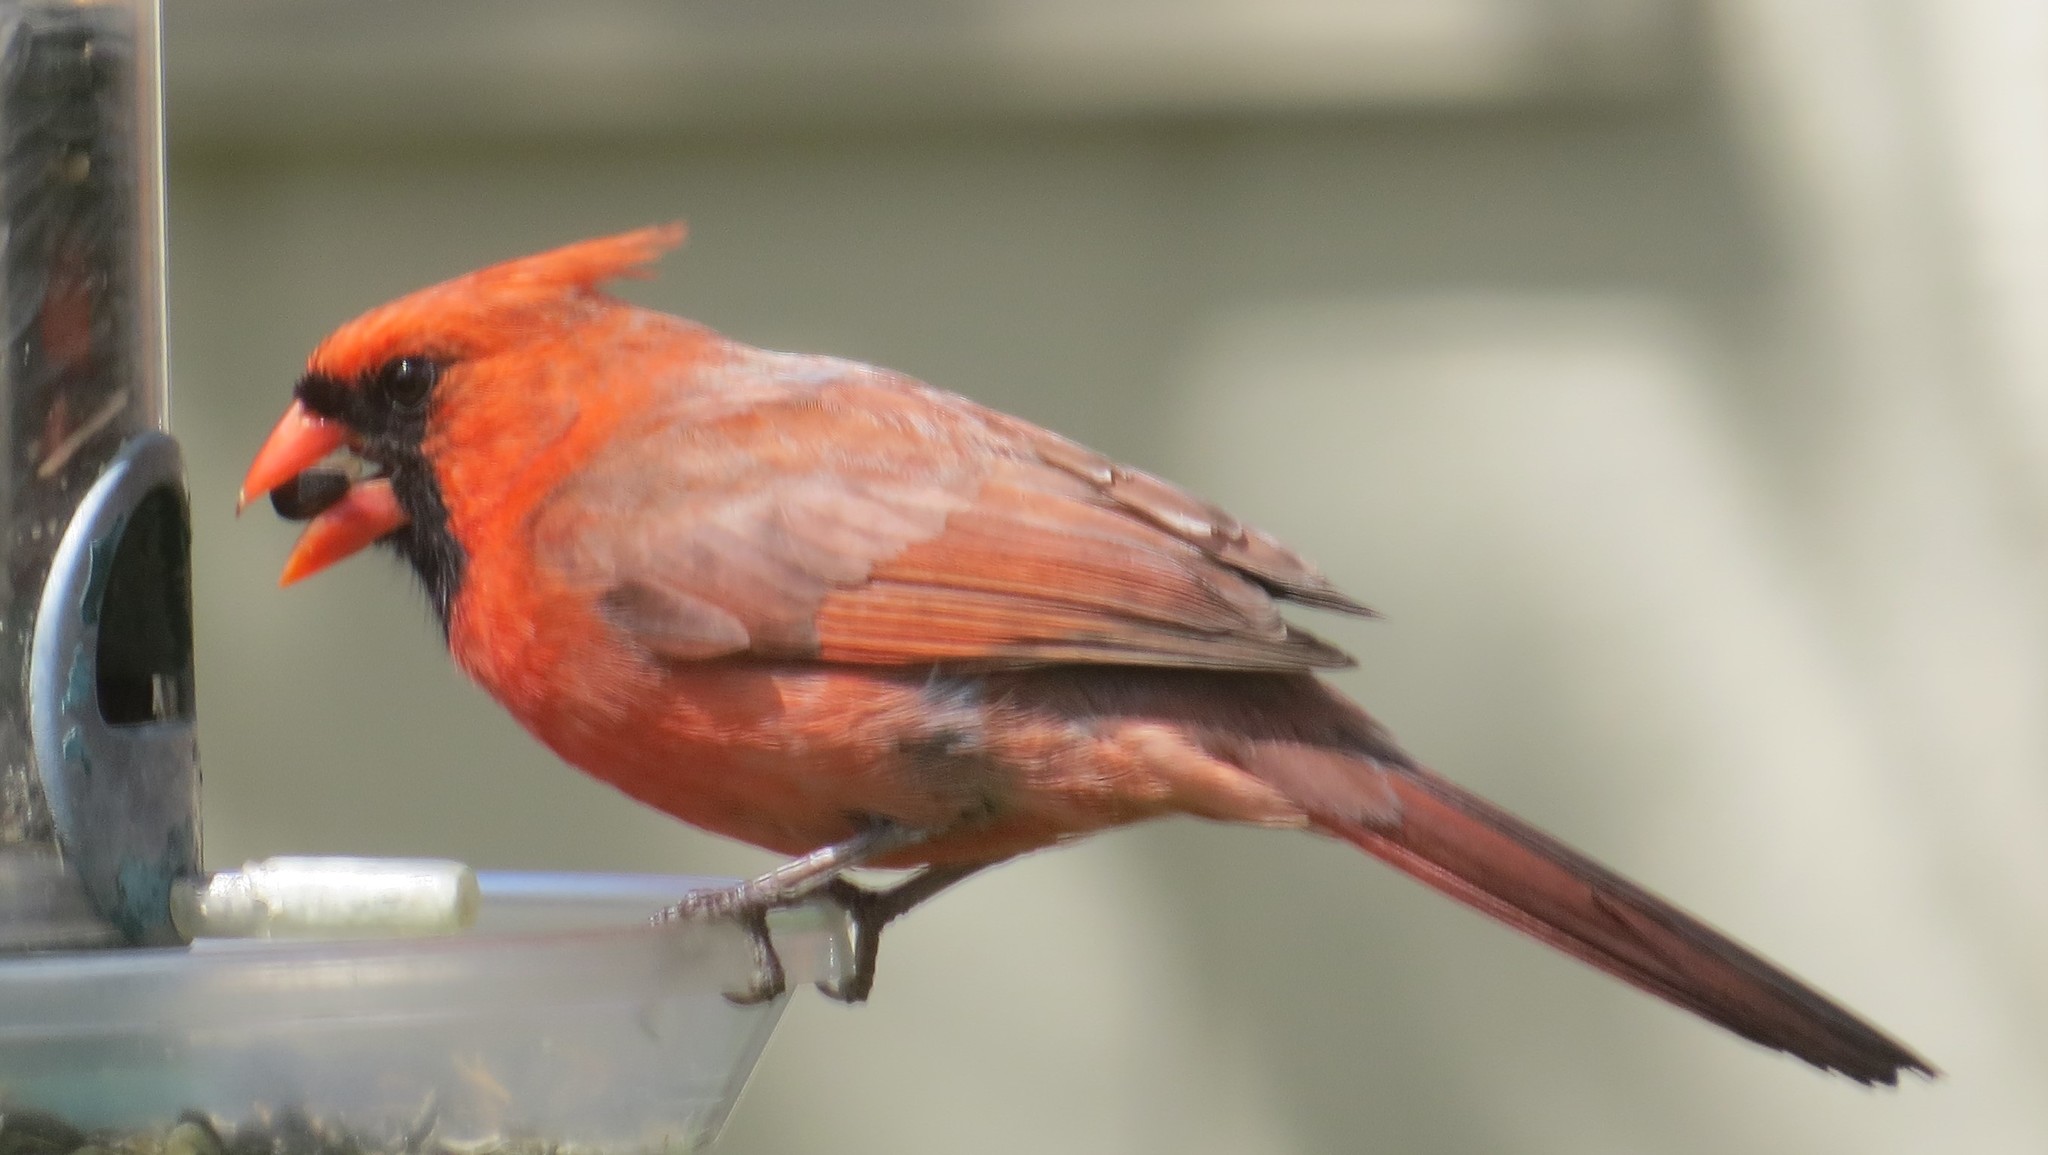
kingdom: Animalia
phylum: Chordata
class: Aves
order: Passeriformes
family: Cardinalidae
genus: Cardinalis
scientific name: Cardinalis cardinalis
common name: Northern cardinal
